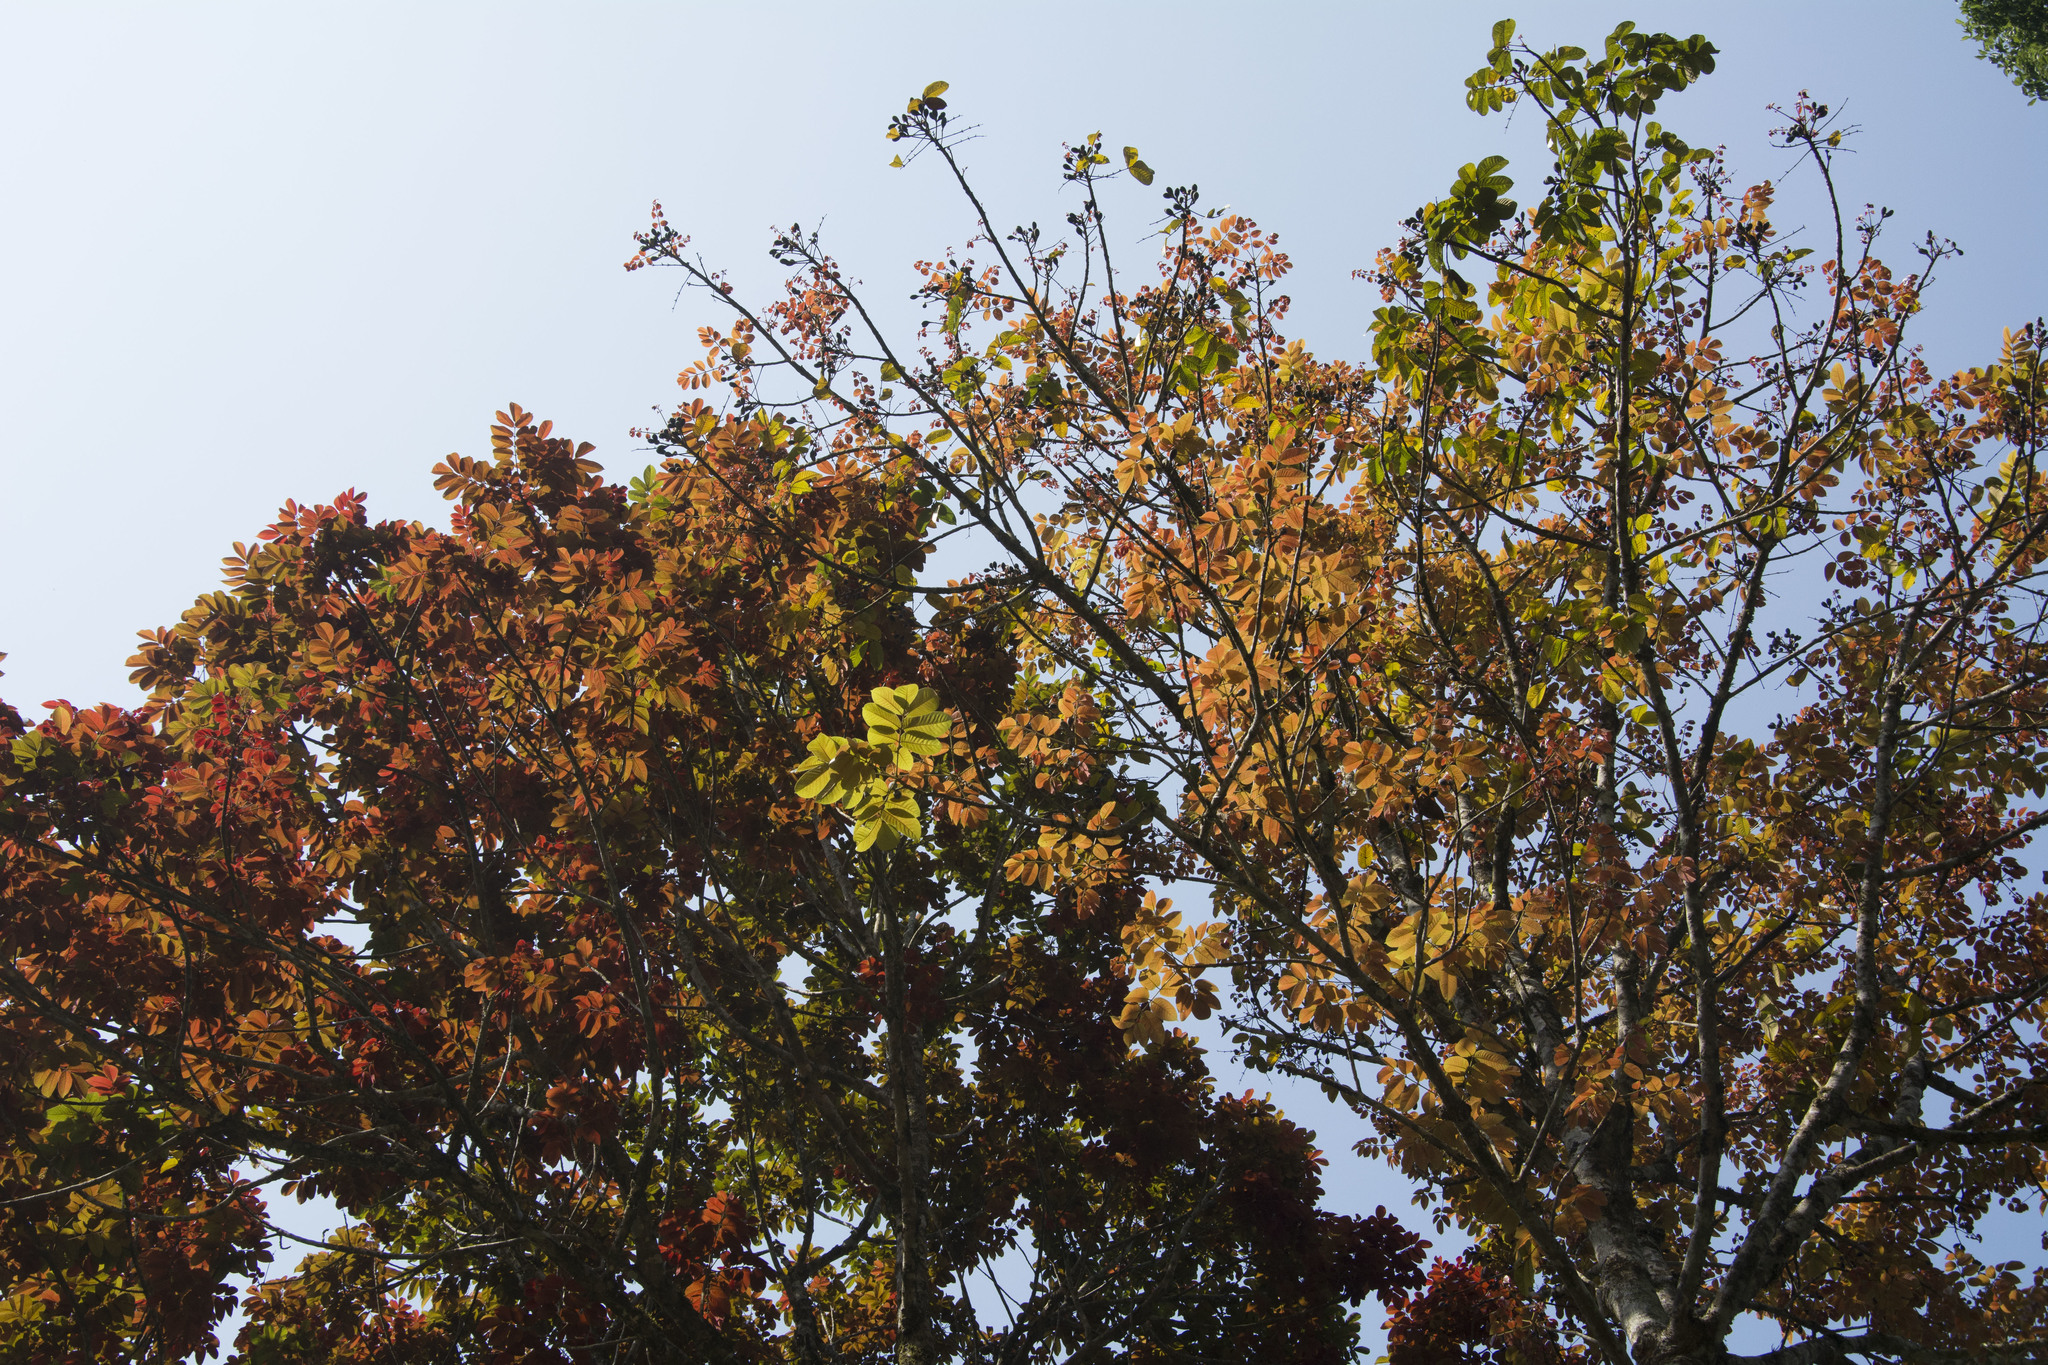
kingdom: Plantae
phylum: Tracheophyta
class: Magnoliopsida
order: Sapindales
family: Burseraceae
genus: Canarium
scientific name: Canarium strictum
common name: Indian white-mahogany
